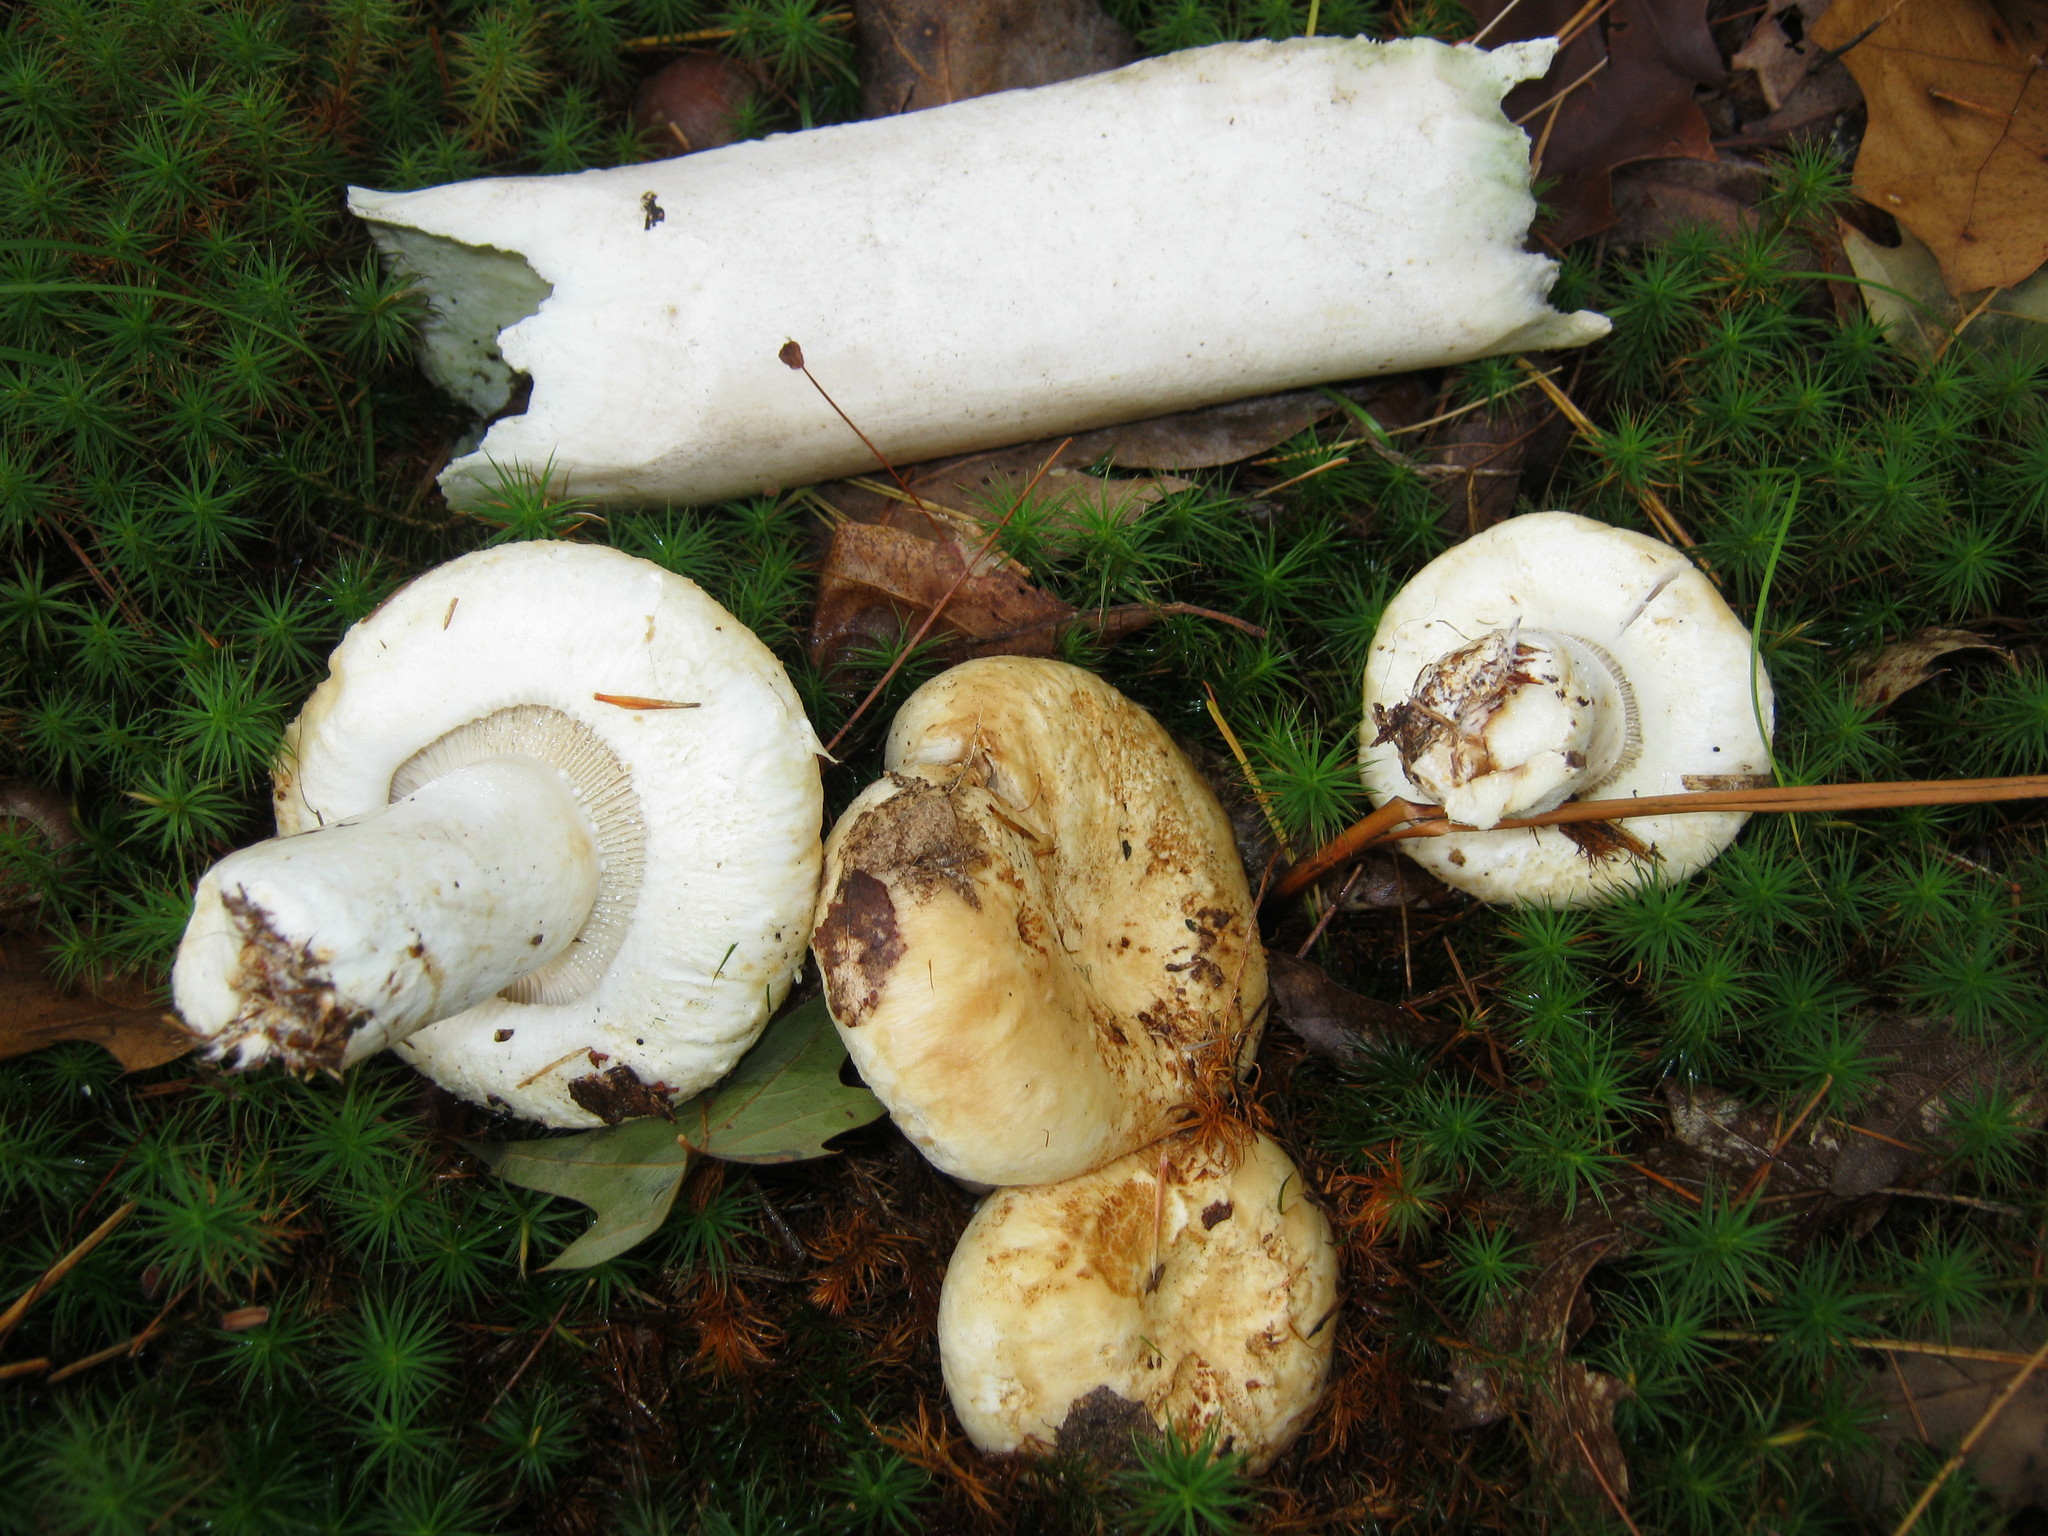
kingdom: Fungi
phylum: Basidiomycota
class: Agaricomycetes
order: Russulales
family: Russulaceae
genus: Lactifluus
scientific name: Lactifluus
